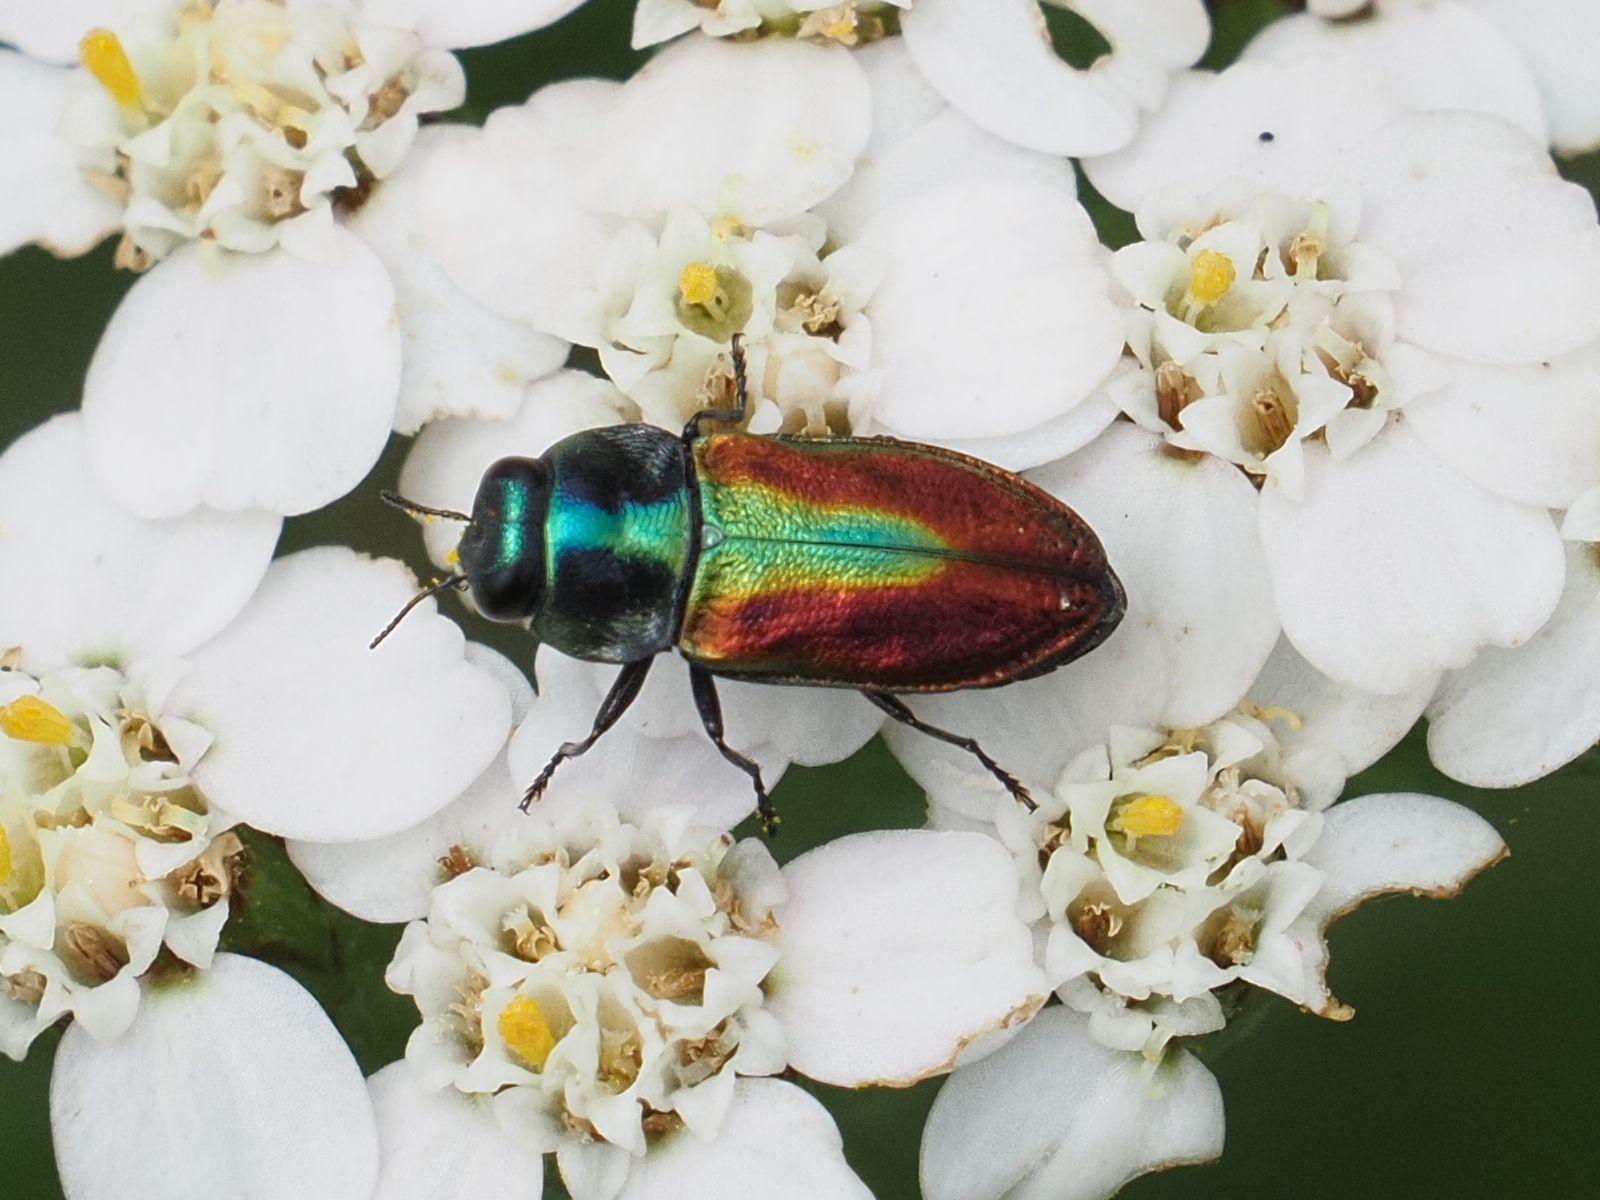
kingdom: Animalia
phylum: Arthropoda
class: Insecta
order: Coleoptera
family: Buprestidae
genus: Anthaxia
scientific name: Anthaxia fulgurans
